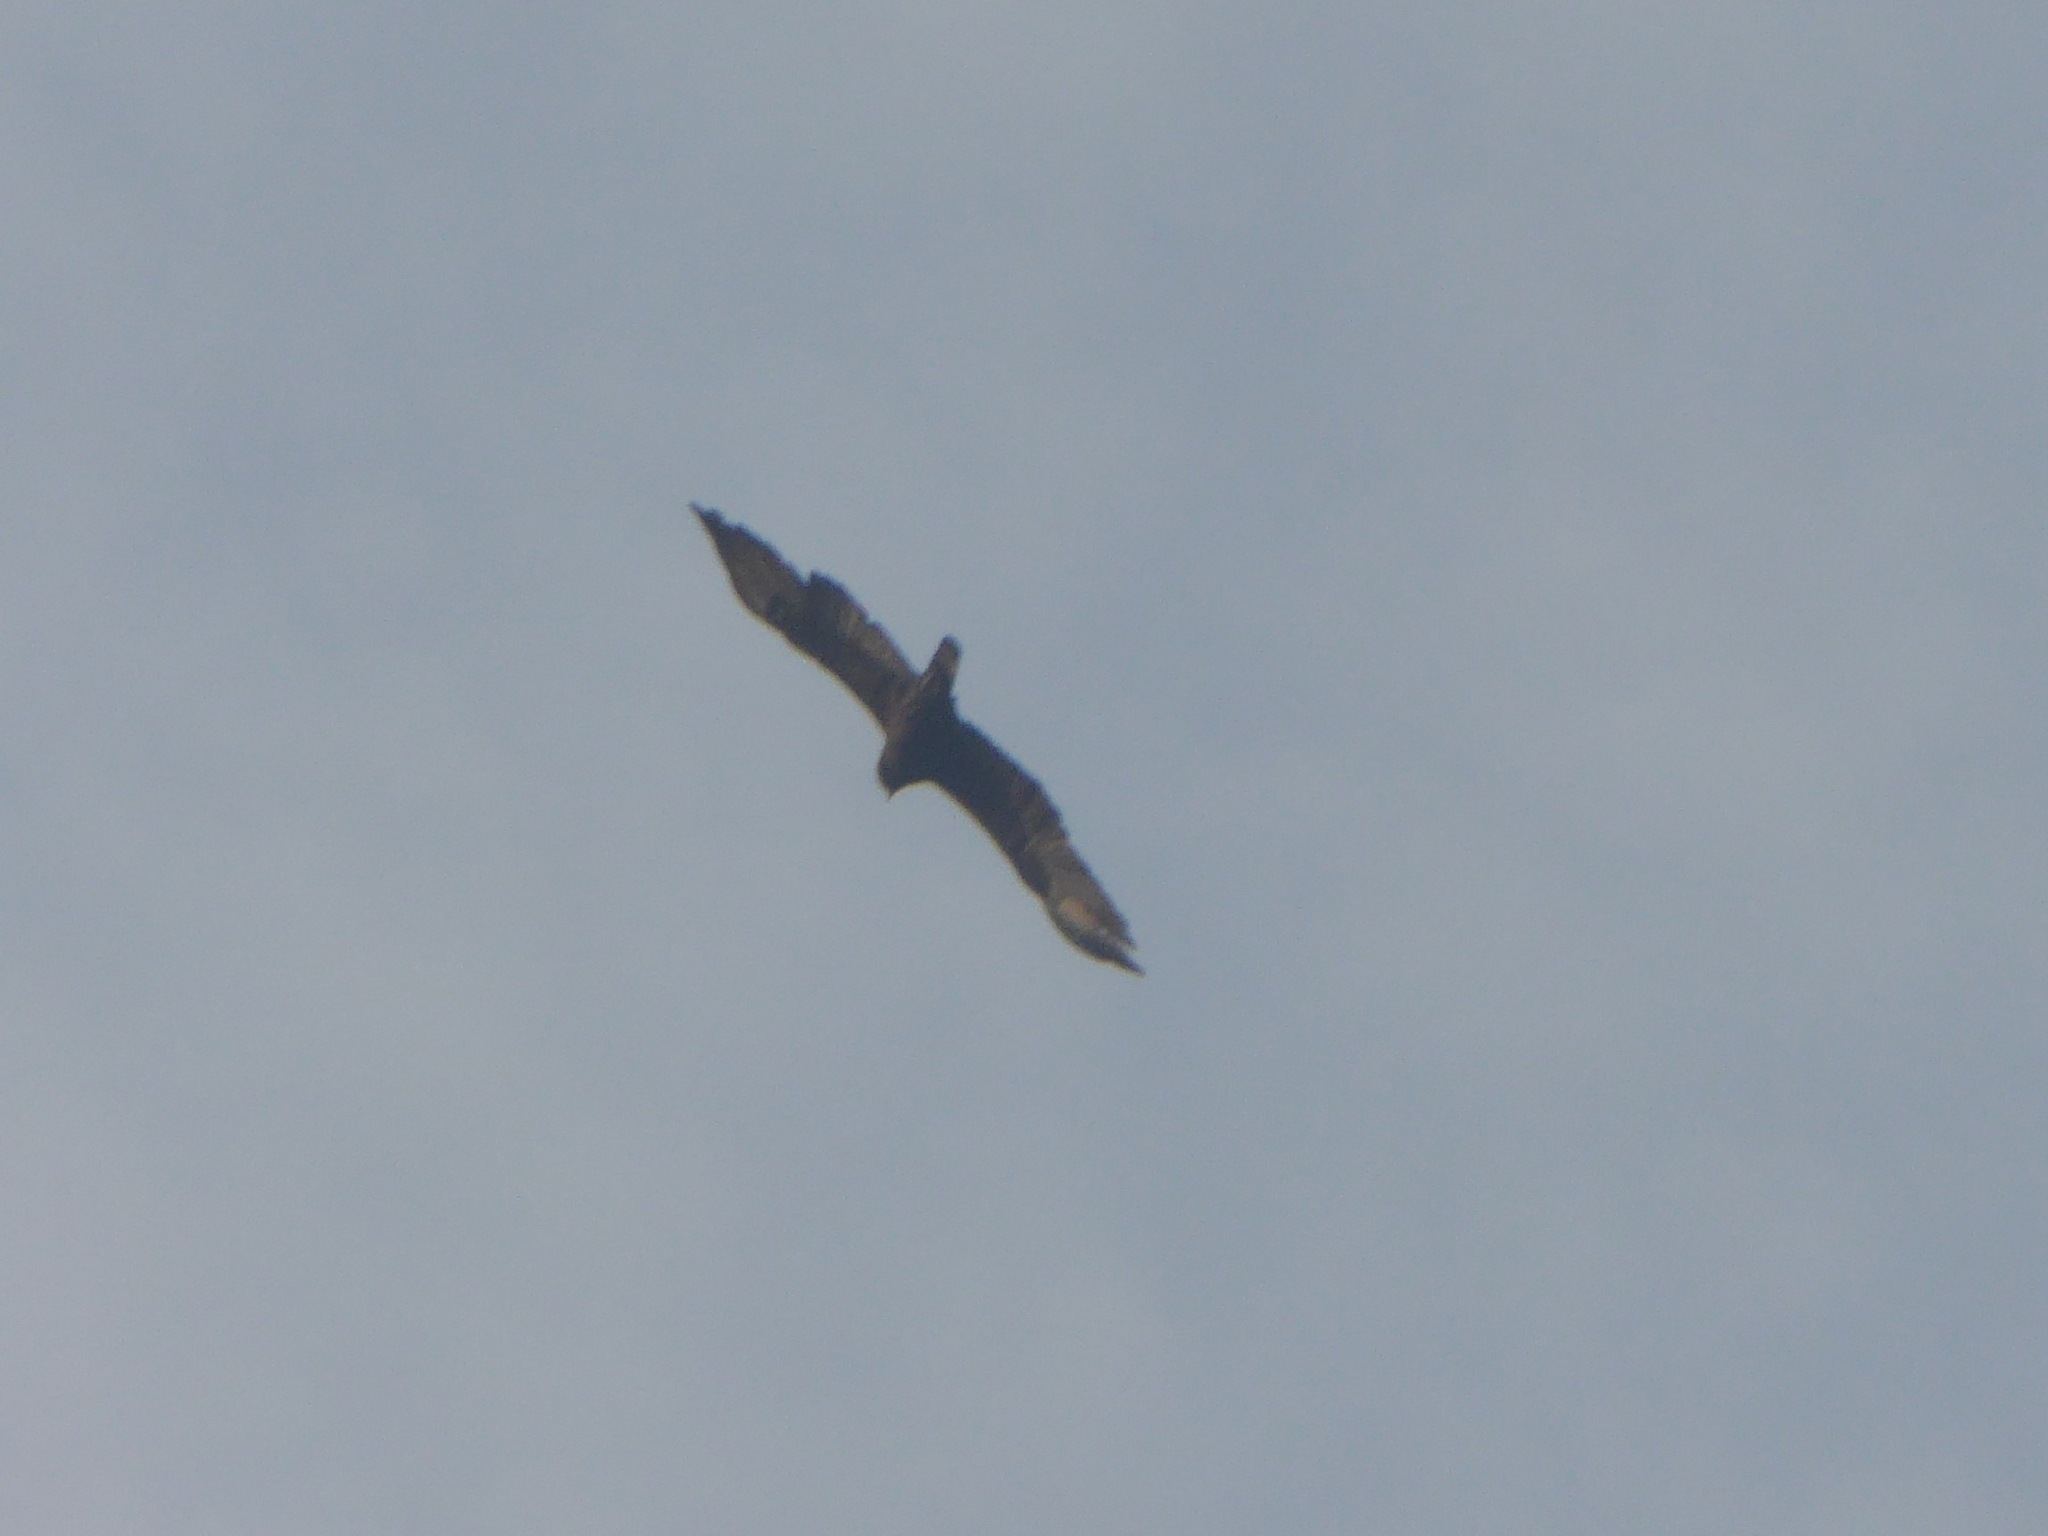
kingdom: Animalia
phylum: Chordata
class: Aves
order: Accipitriformes
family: Accipitridae
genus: Hieraaetus
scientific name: Hieraaetus wahlbergi
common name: Wahlberg's eagle
